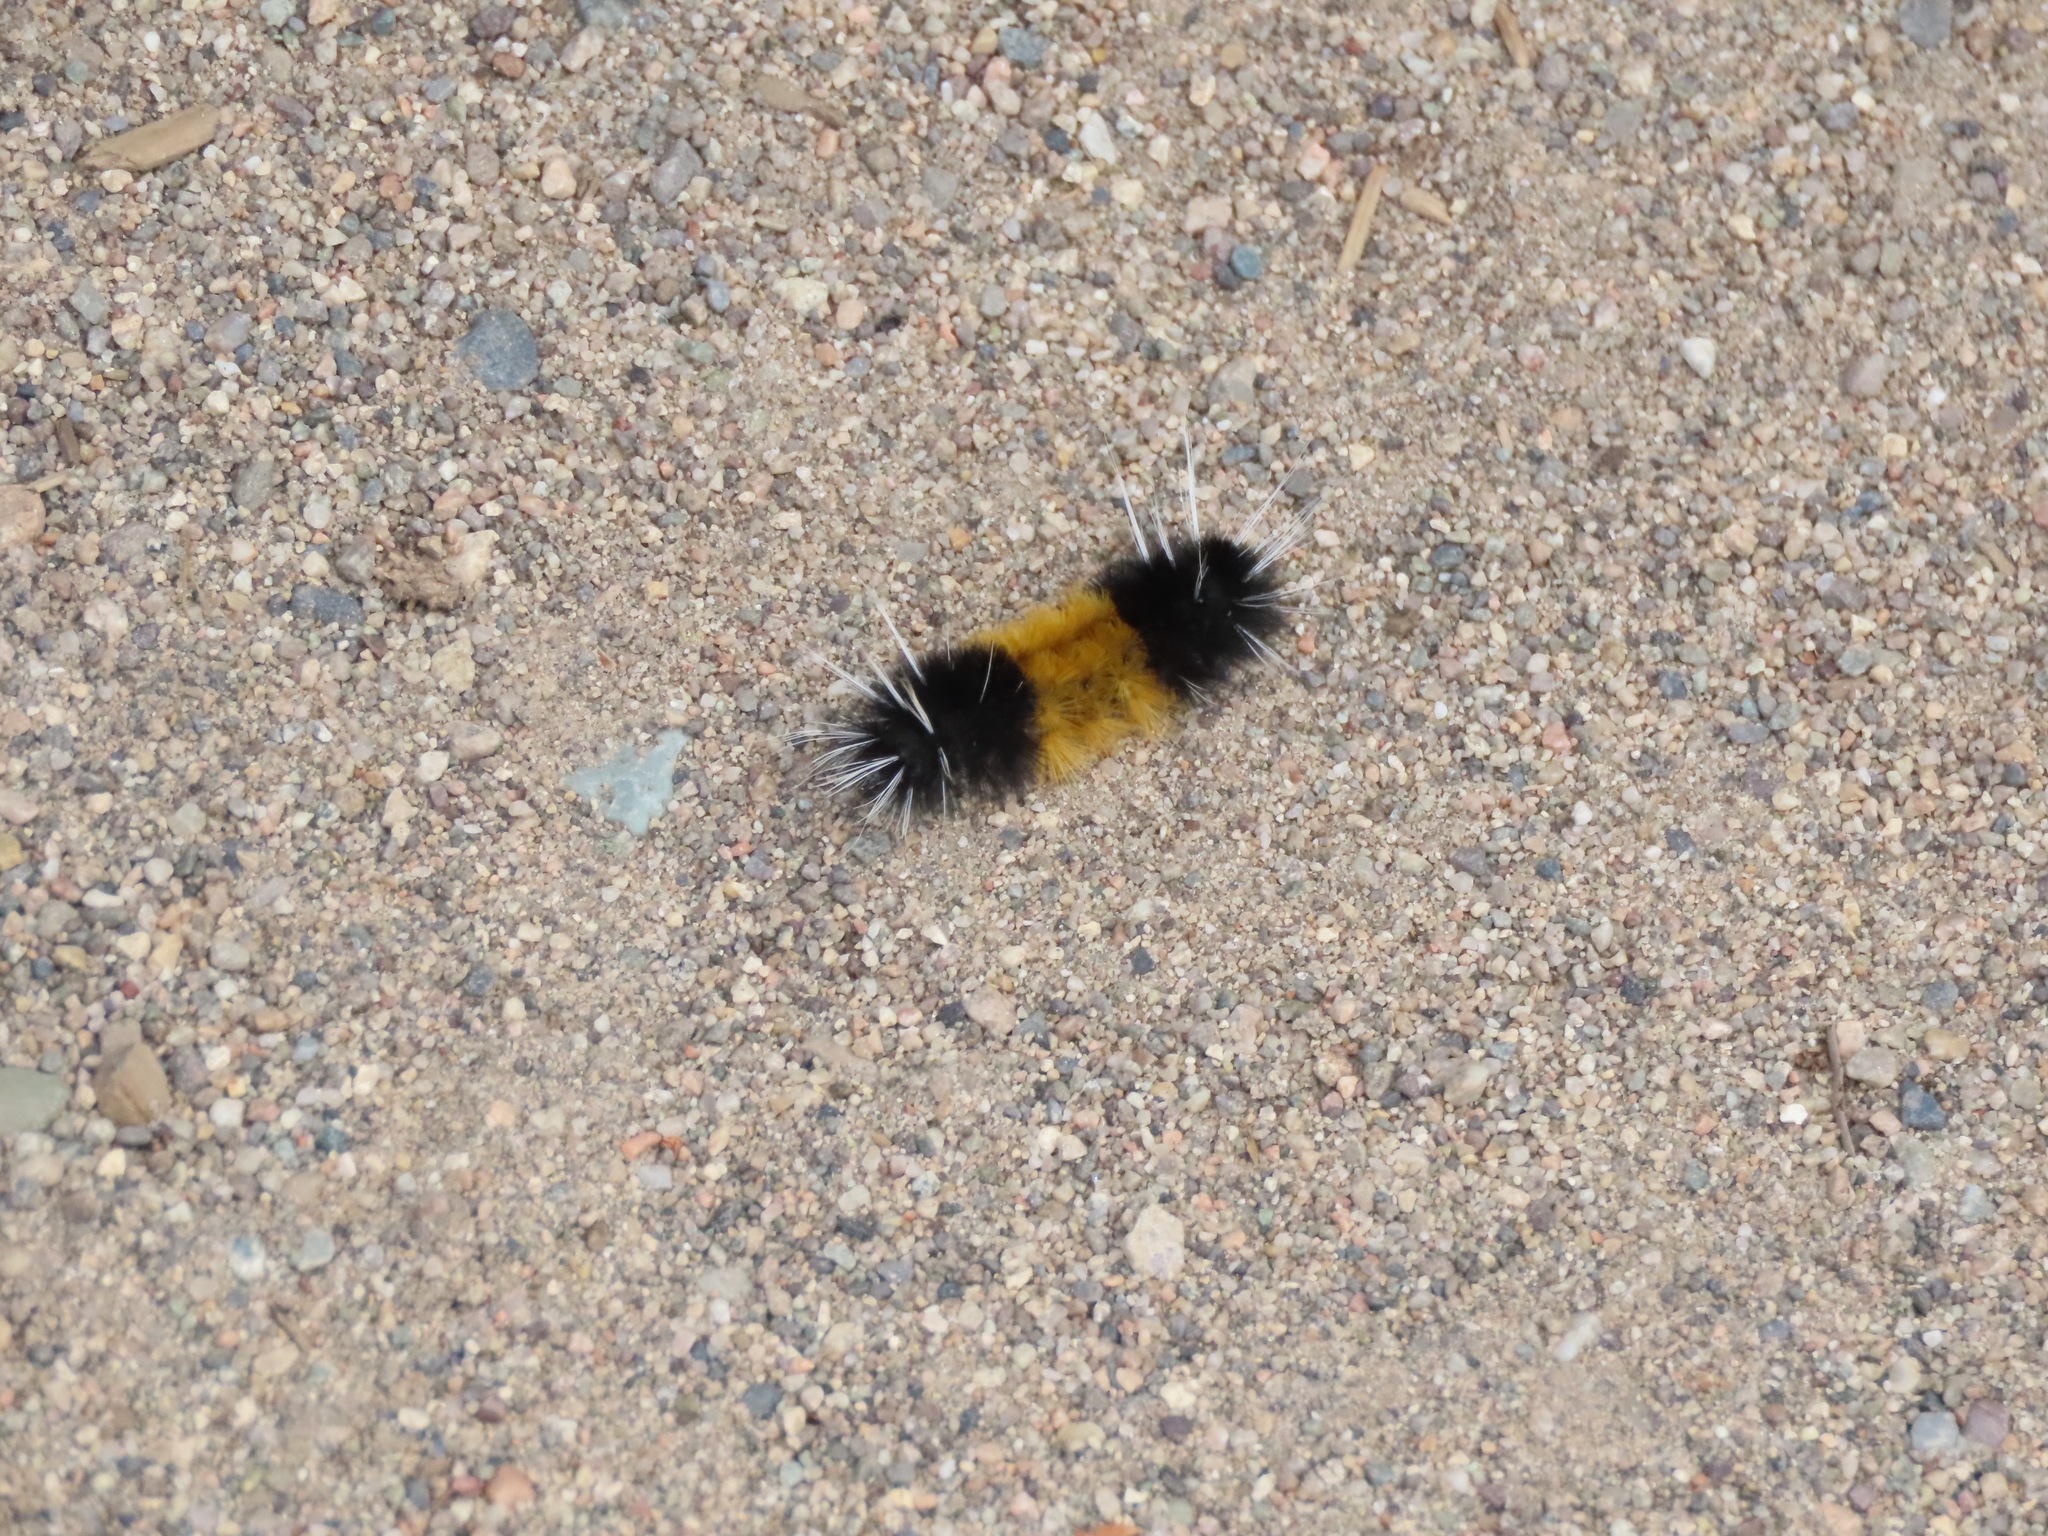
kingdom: Animalia
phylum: Arthropoda
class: Insecta
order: Lepidoptera
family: Erebidae
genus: Lophocampa
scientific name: Lophocampa maculata
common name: Spotted tussock moth
